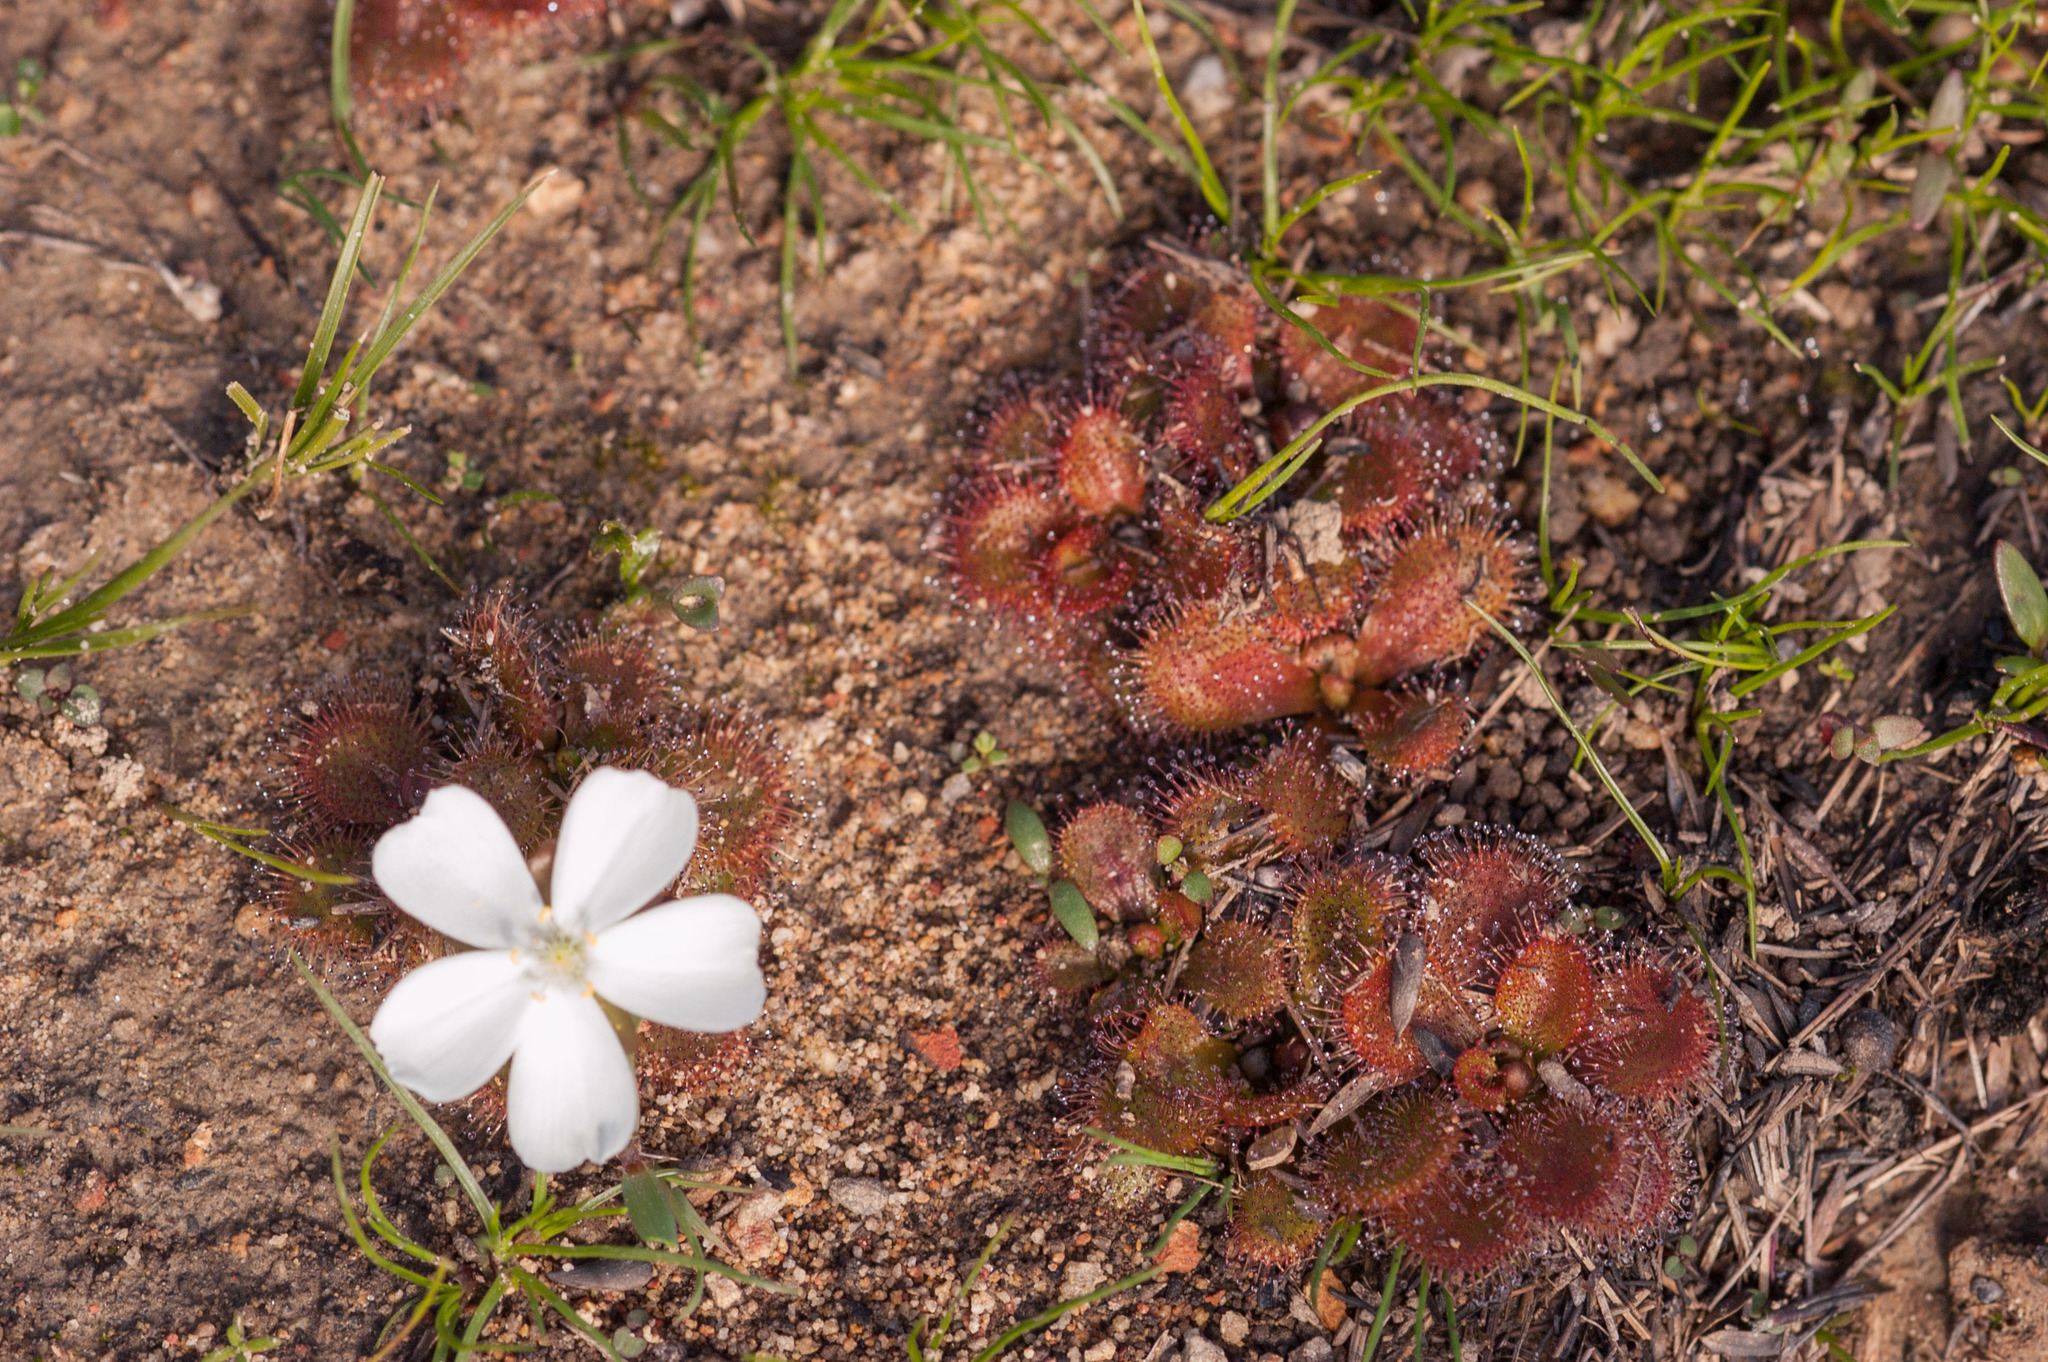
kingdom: Plantae
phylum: Tracheophyta
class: Magnoliopsida
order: Caryophyllales
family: Droseraceae
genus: Drosera
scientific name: Drosera whittakeri
